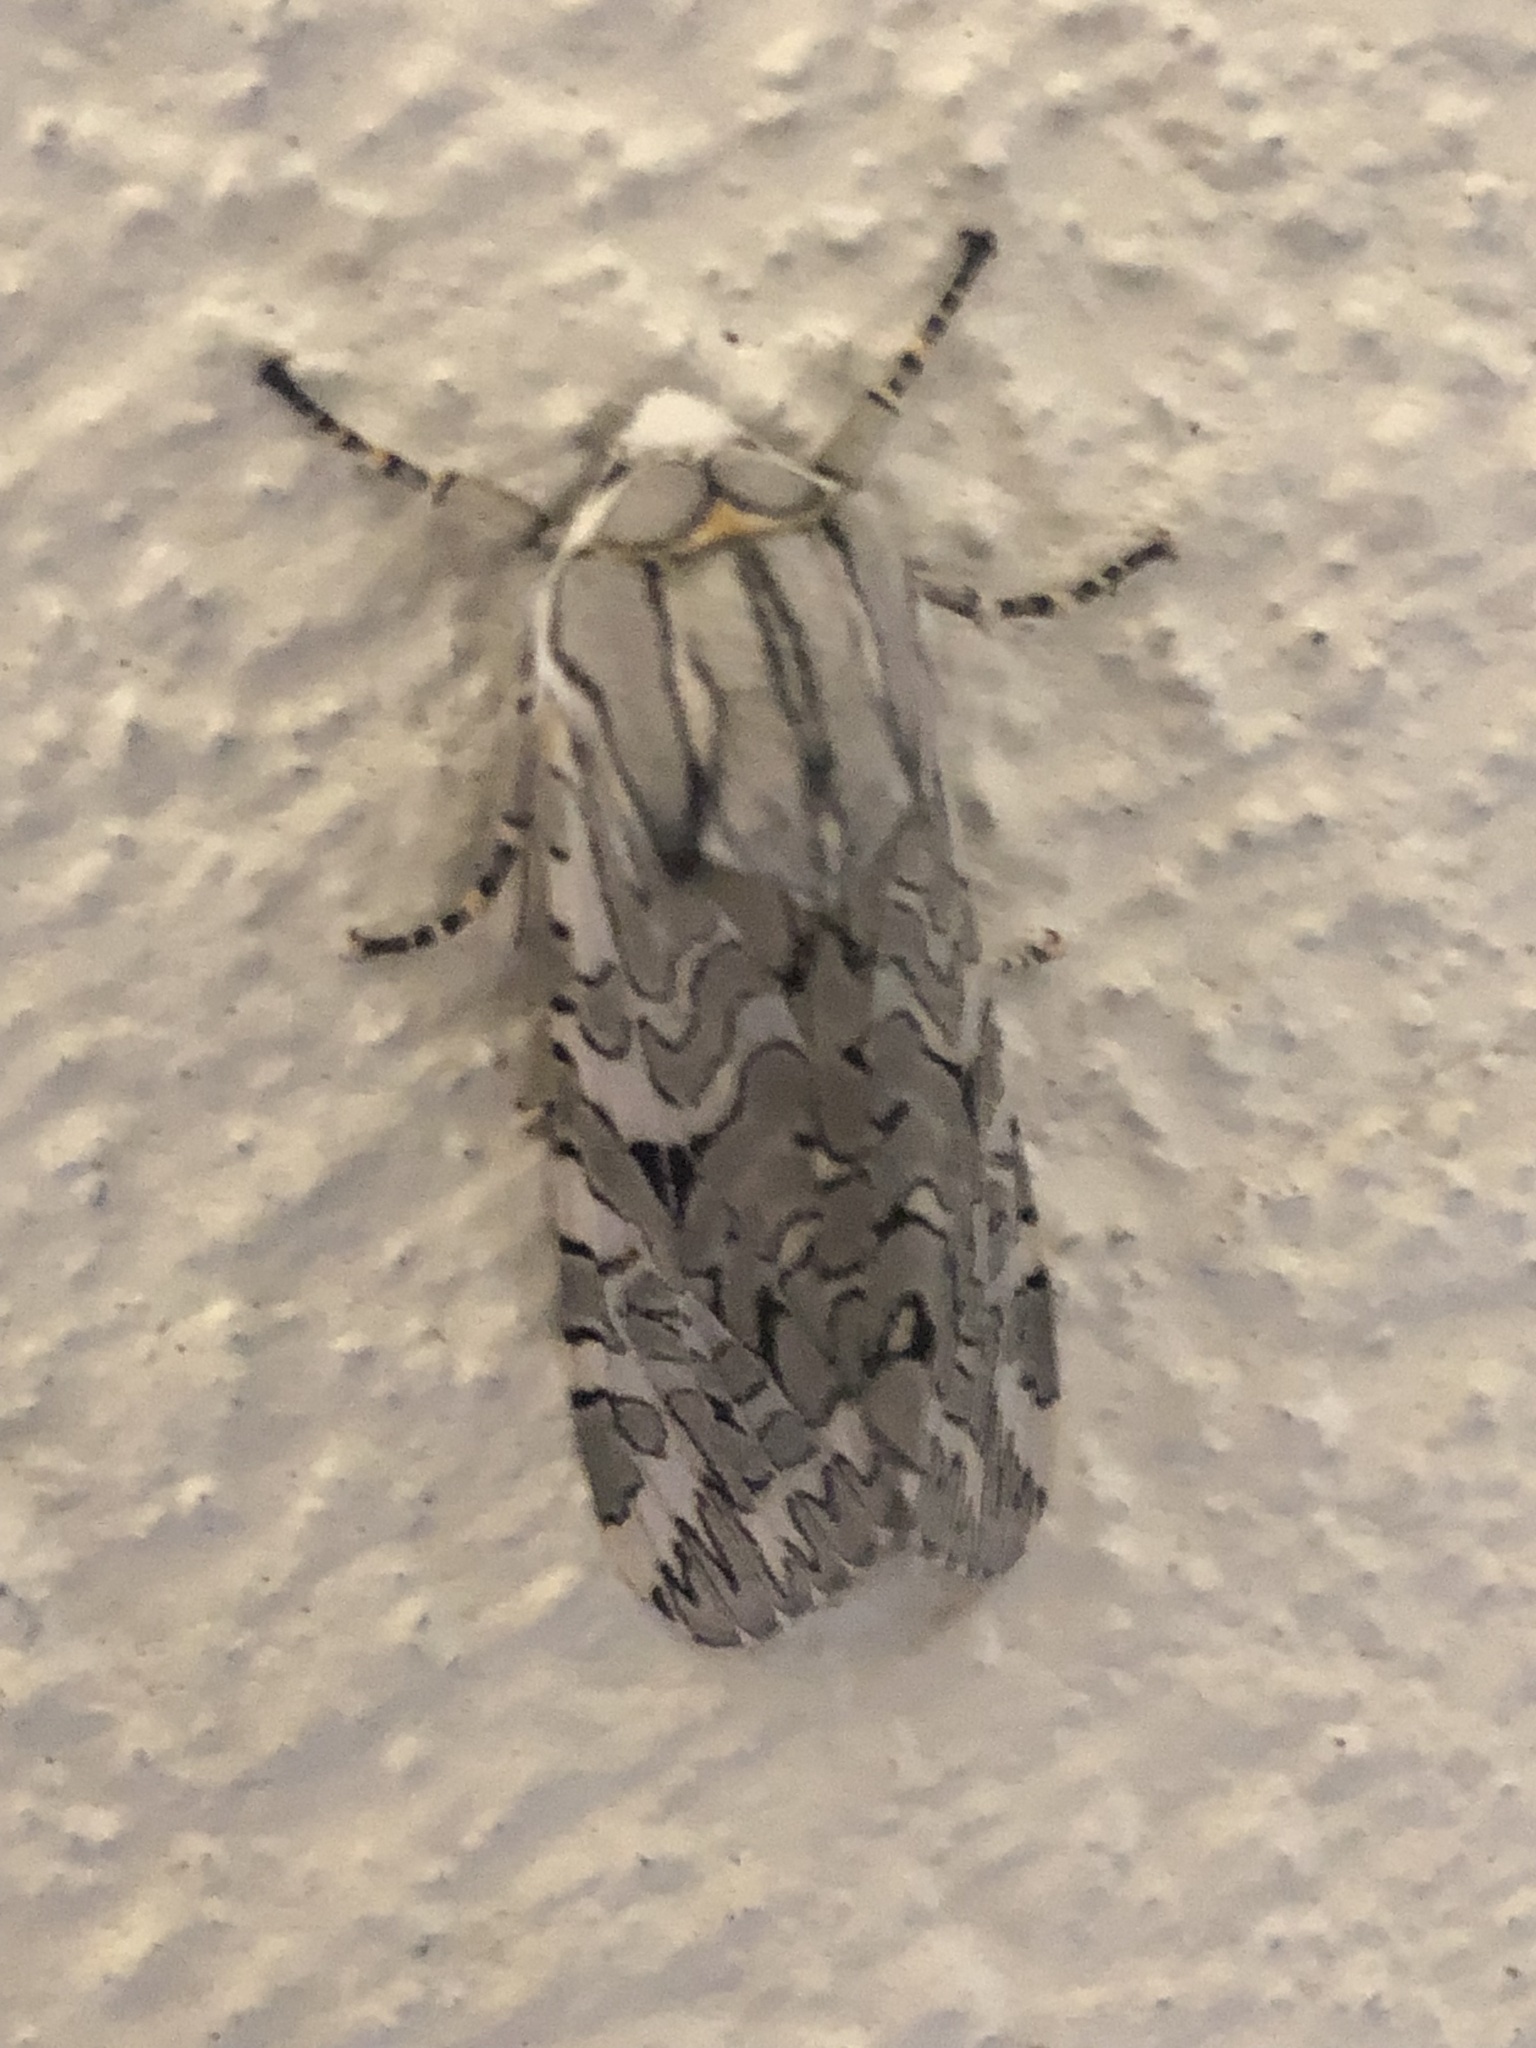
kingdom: Animalia
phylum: Arthropoda
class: Insecta
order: Lepidoptera
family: Erebidae
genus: Arachnis
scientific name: Arachnis picta
